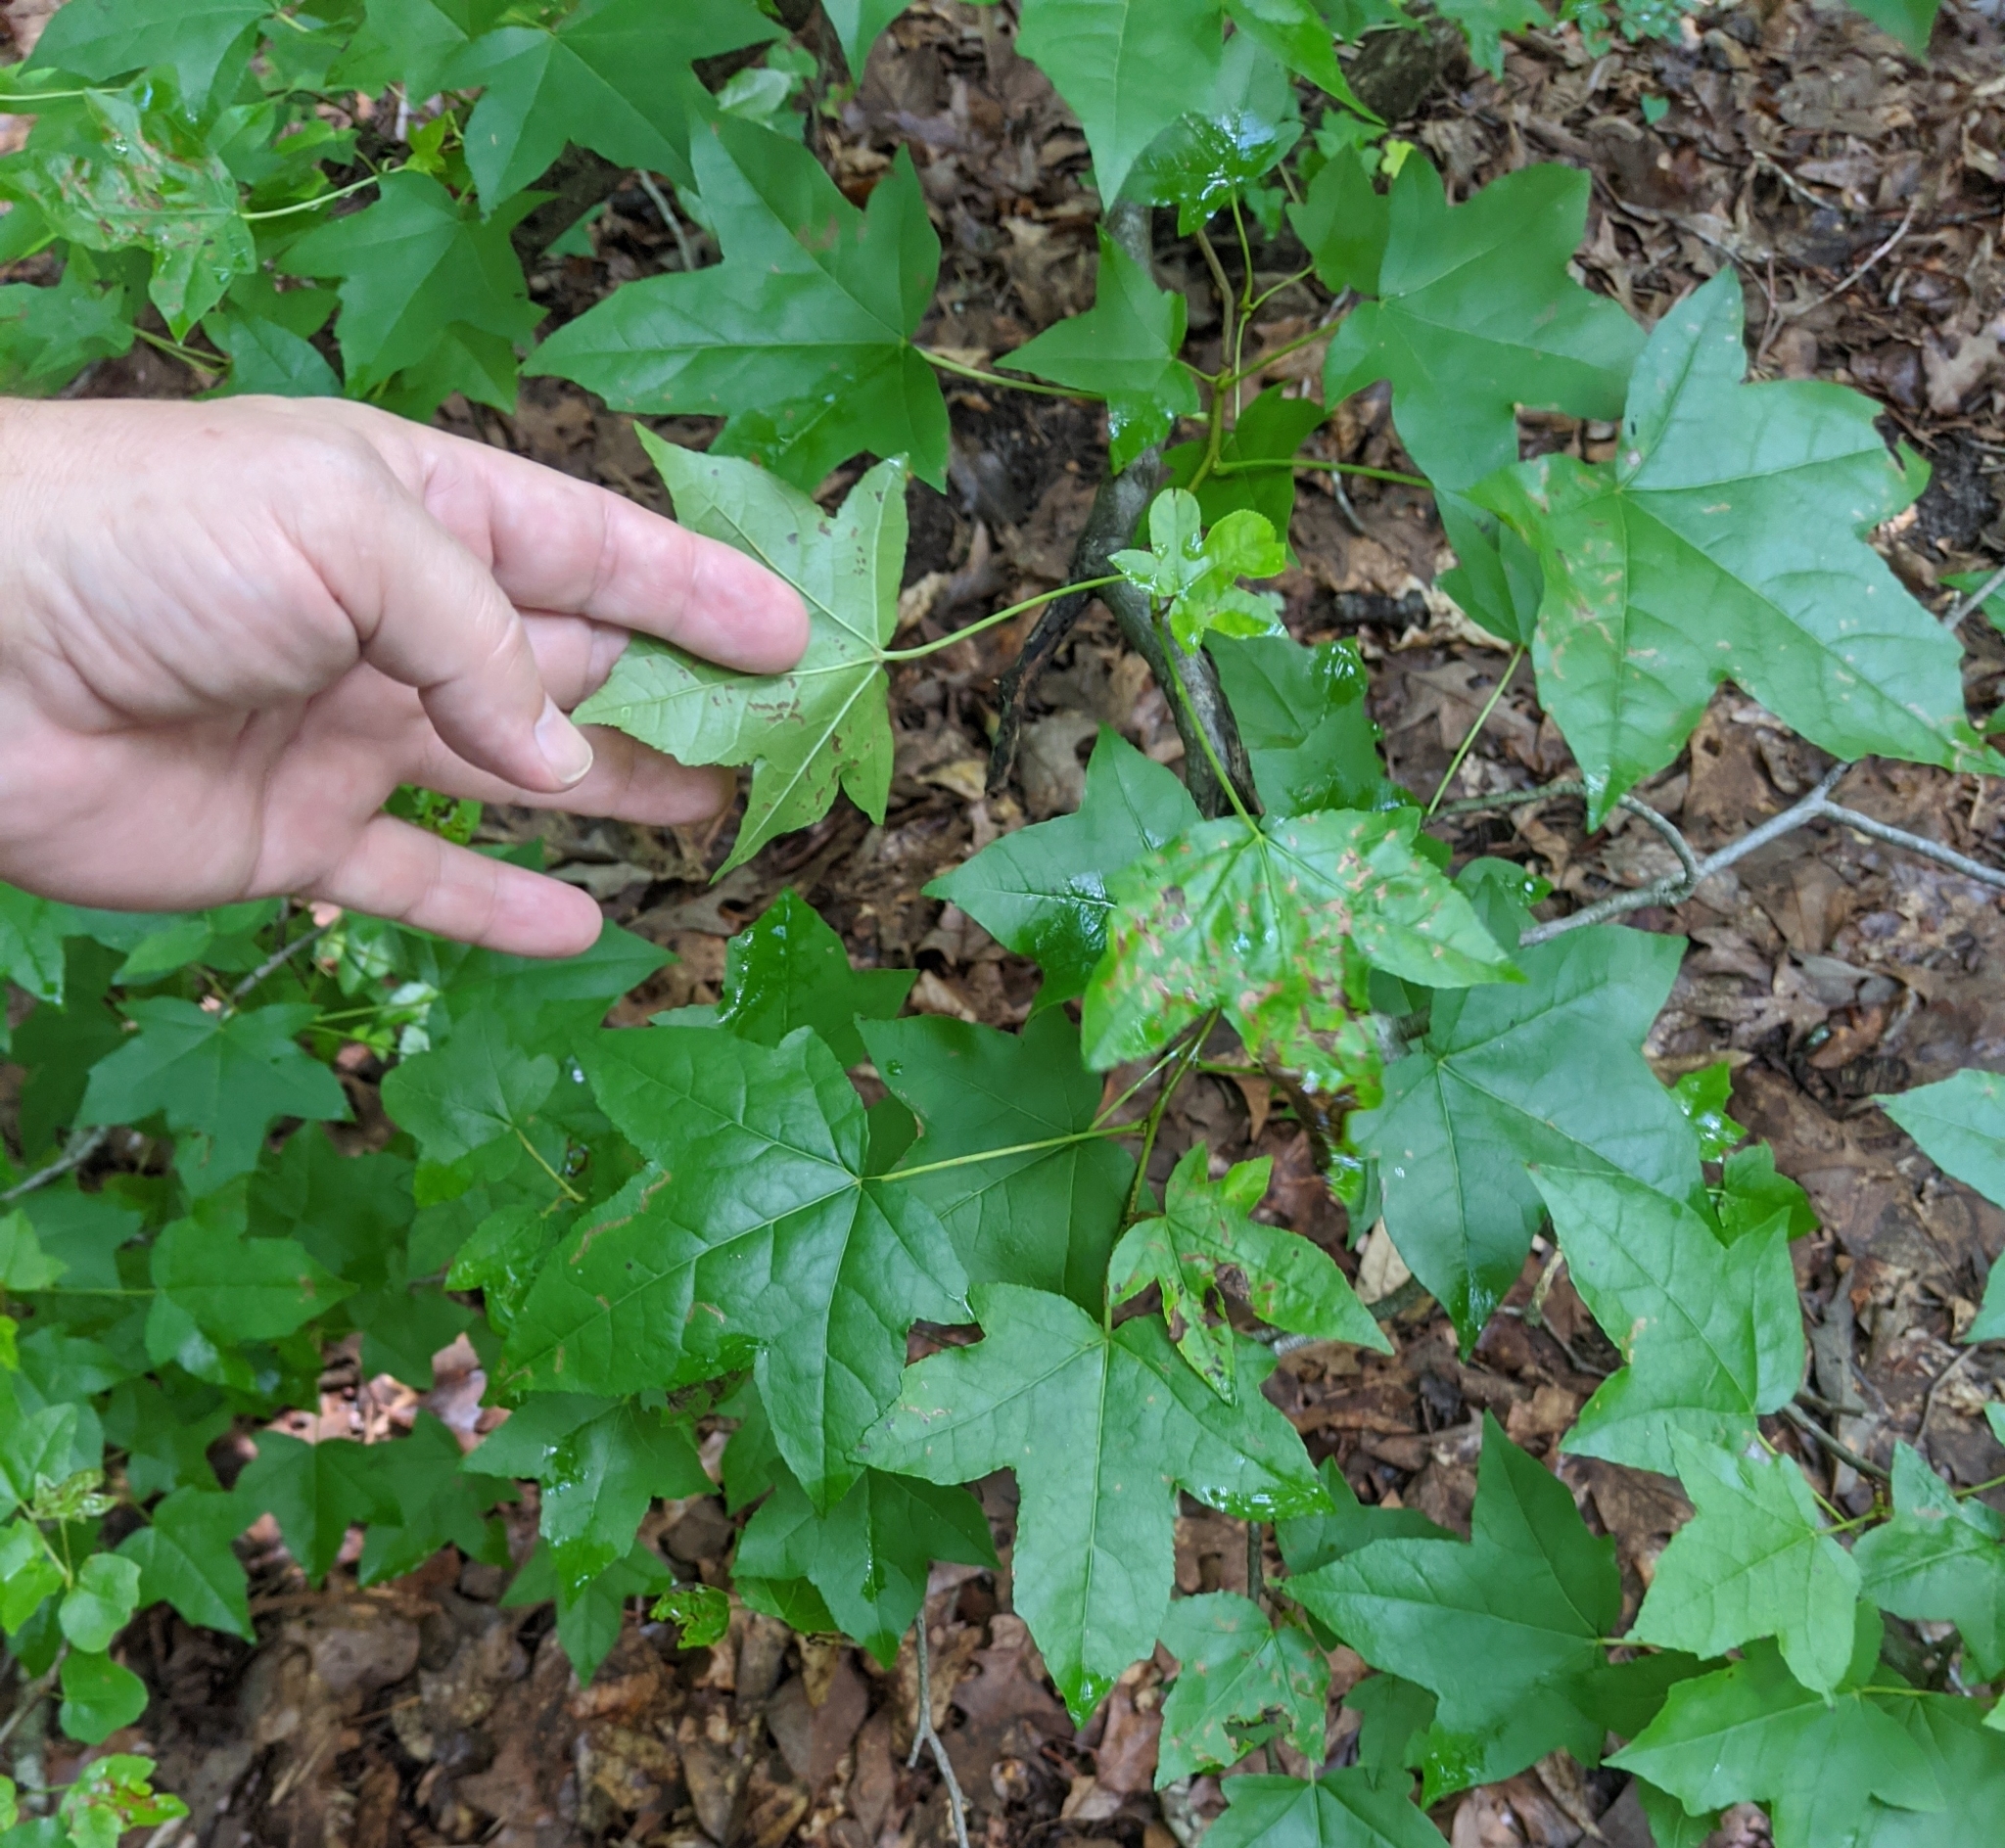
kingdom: Plantae
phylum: Tracheophyta
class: Magnoliopsida
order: Saxifragales
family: Altingiaceae
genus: Liquidambar
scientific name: Liquidambar styraciflua
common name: Sweet gum
